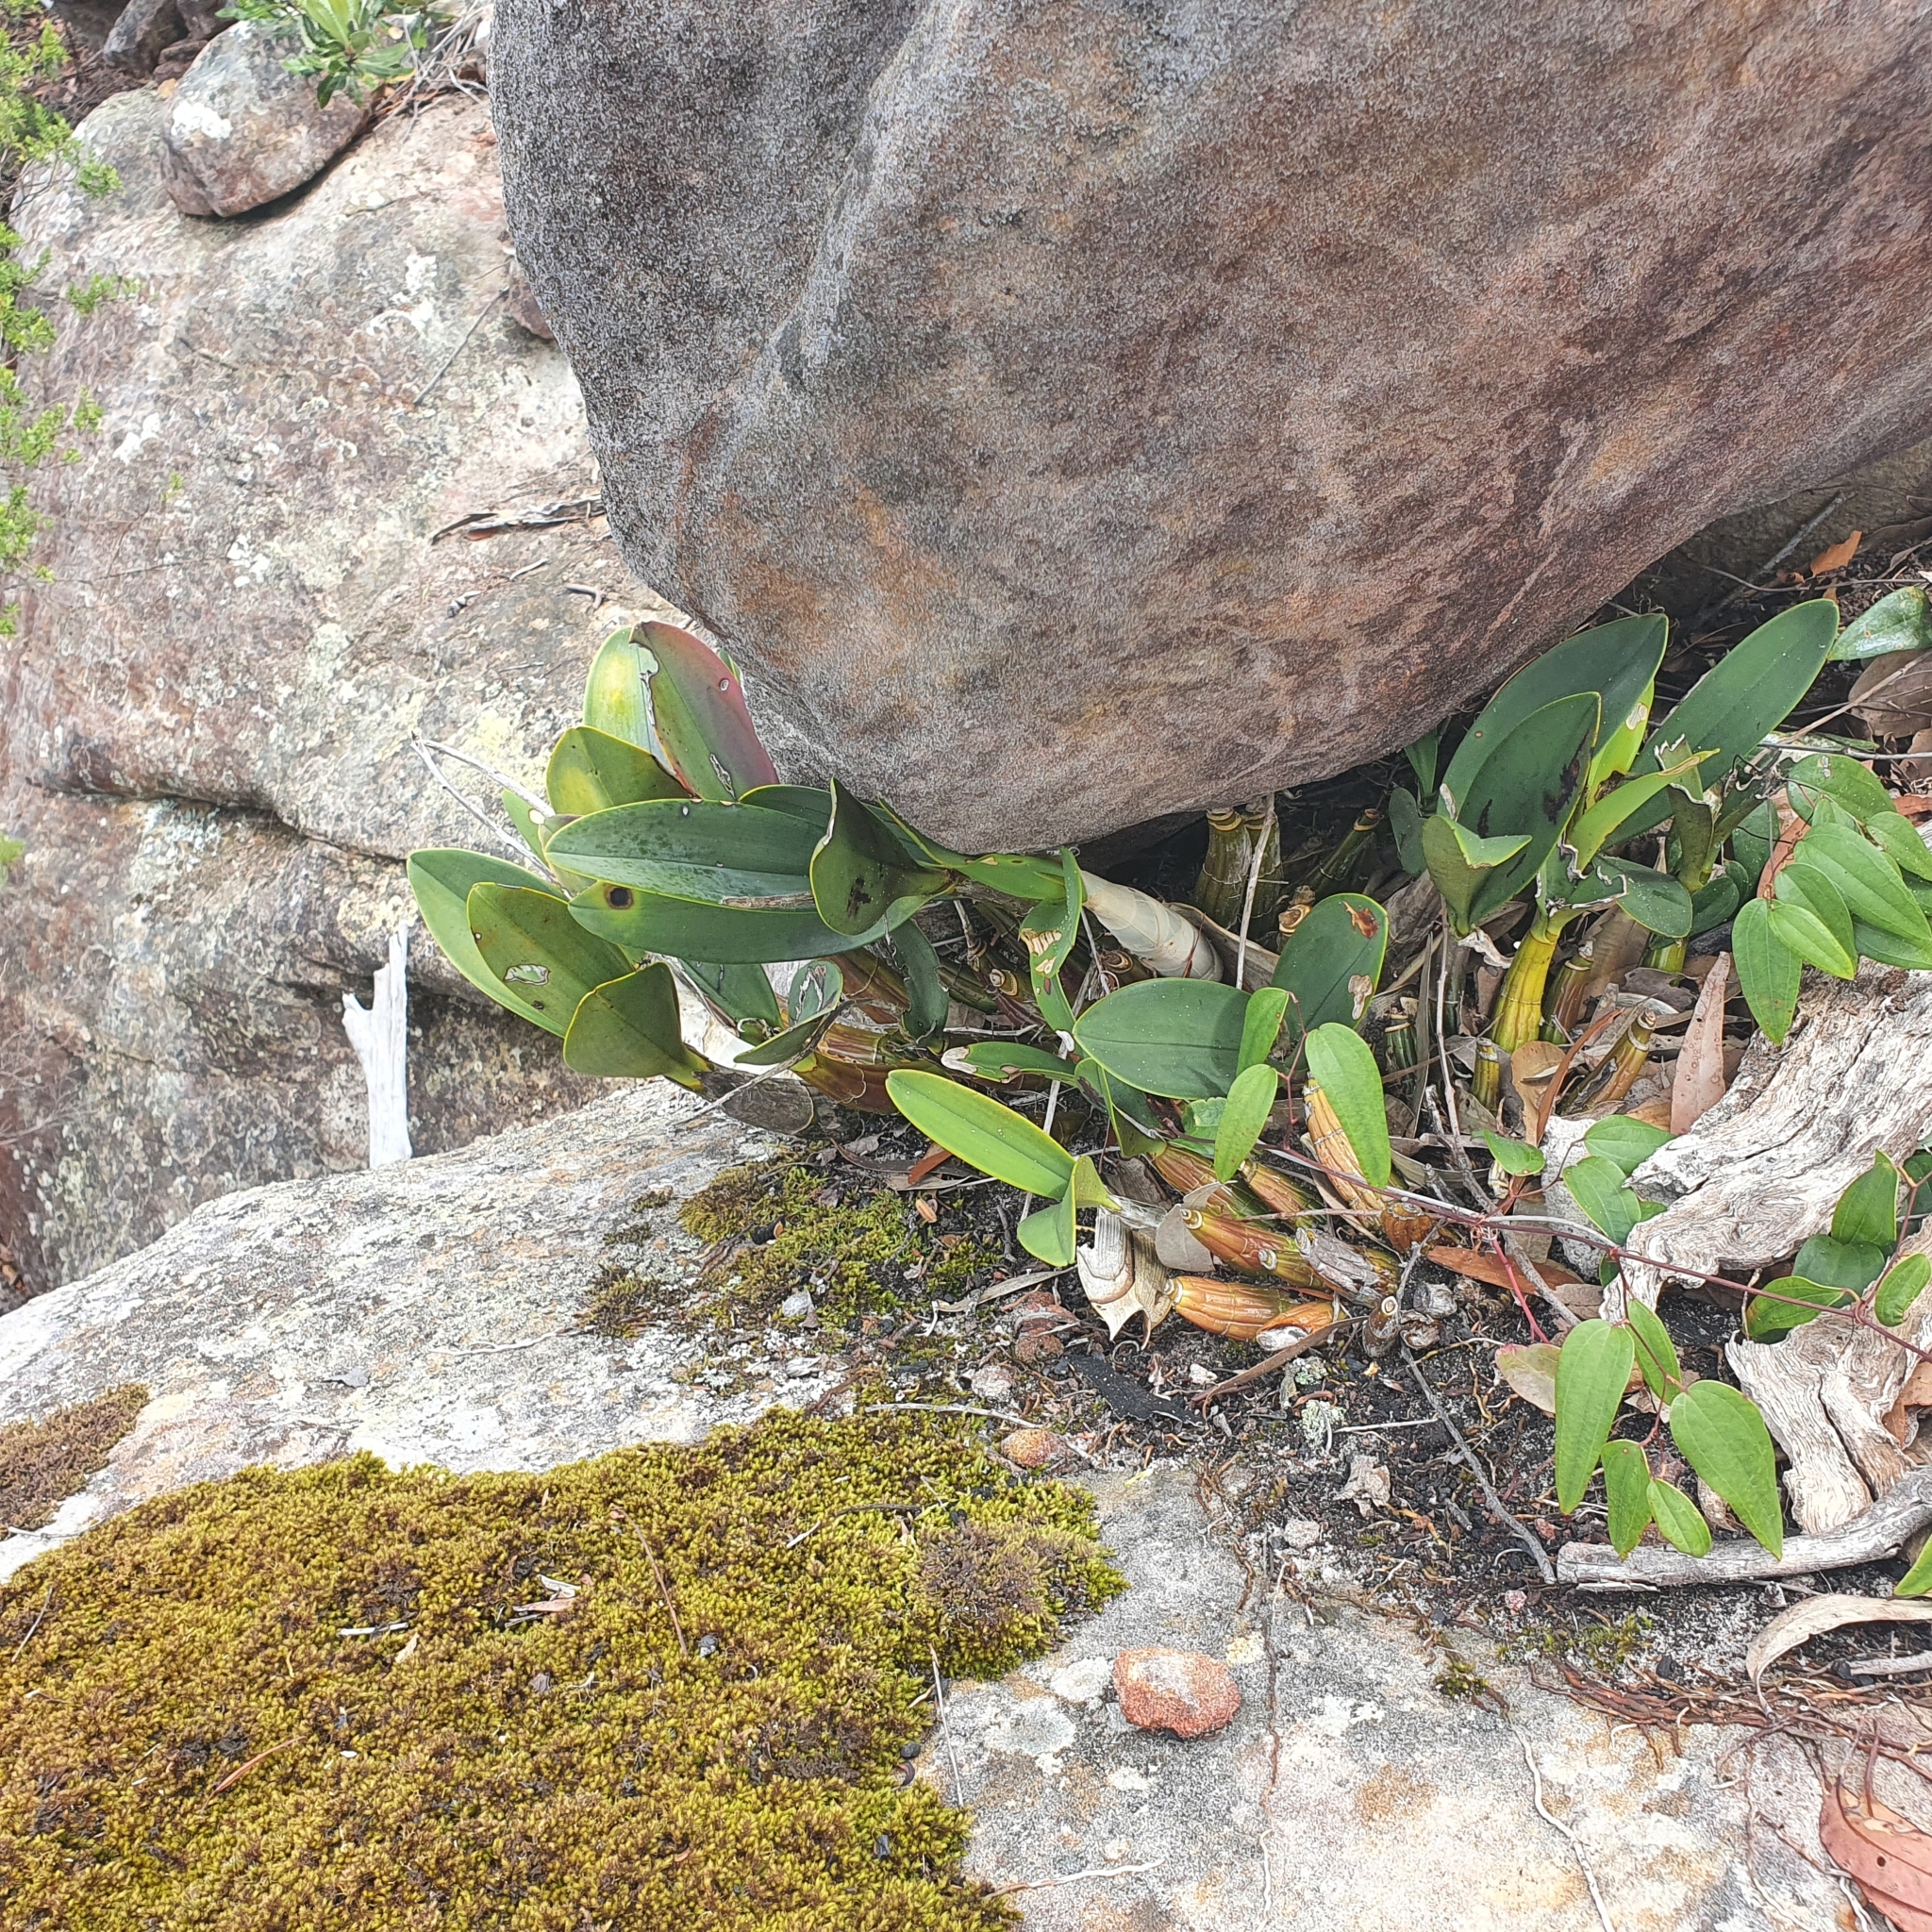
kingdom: Plantae
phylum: Tracheophyta
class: Liliopsida
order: Asparagales
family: Orchidaceae
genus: Dendrobium
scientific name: Dendrobium speciosum
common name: Rock-lily
